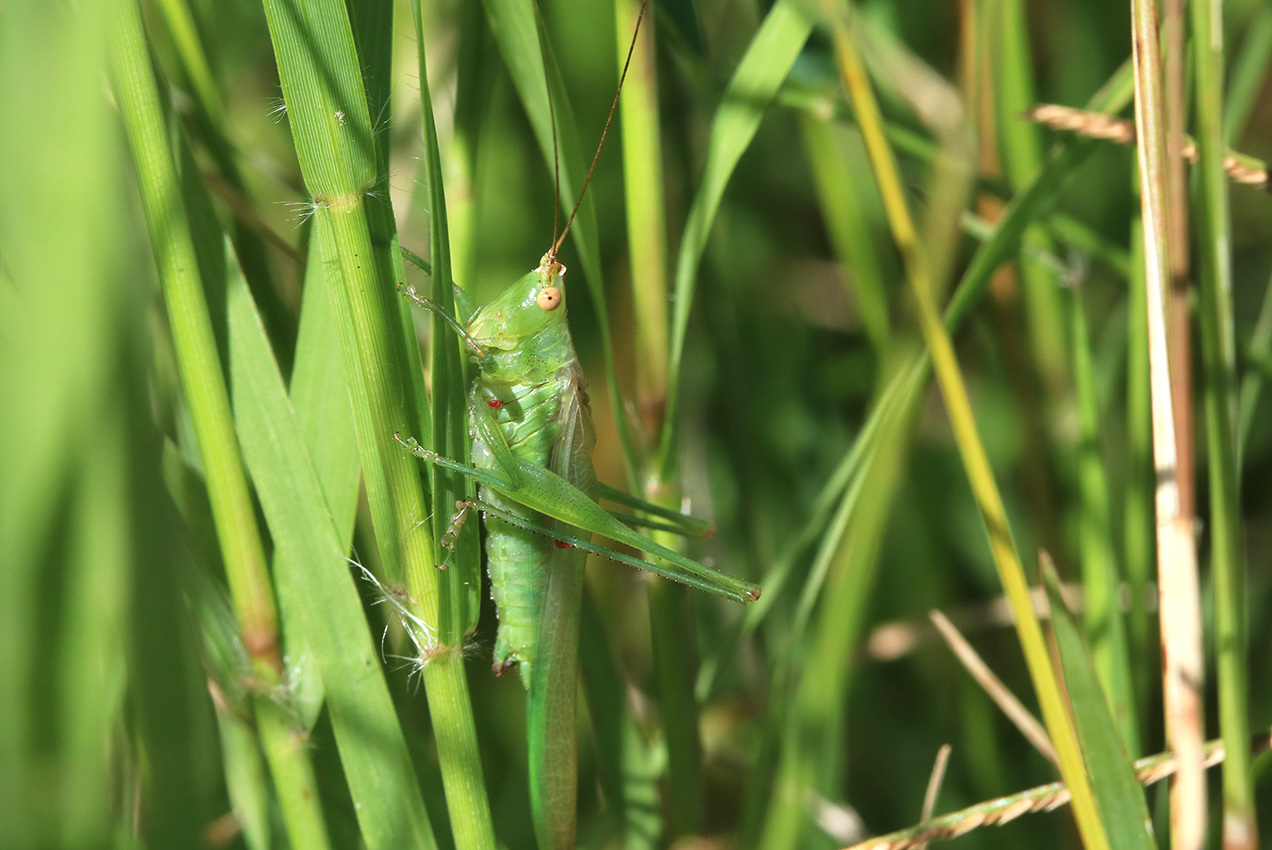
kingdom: Animalia
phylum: Arthropoda
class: Insecta
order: Orthoptera
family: Tettigoniidae
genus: Conocephalus
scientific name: Conocephalus longipes
